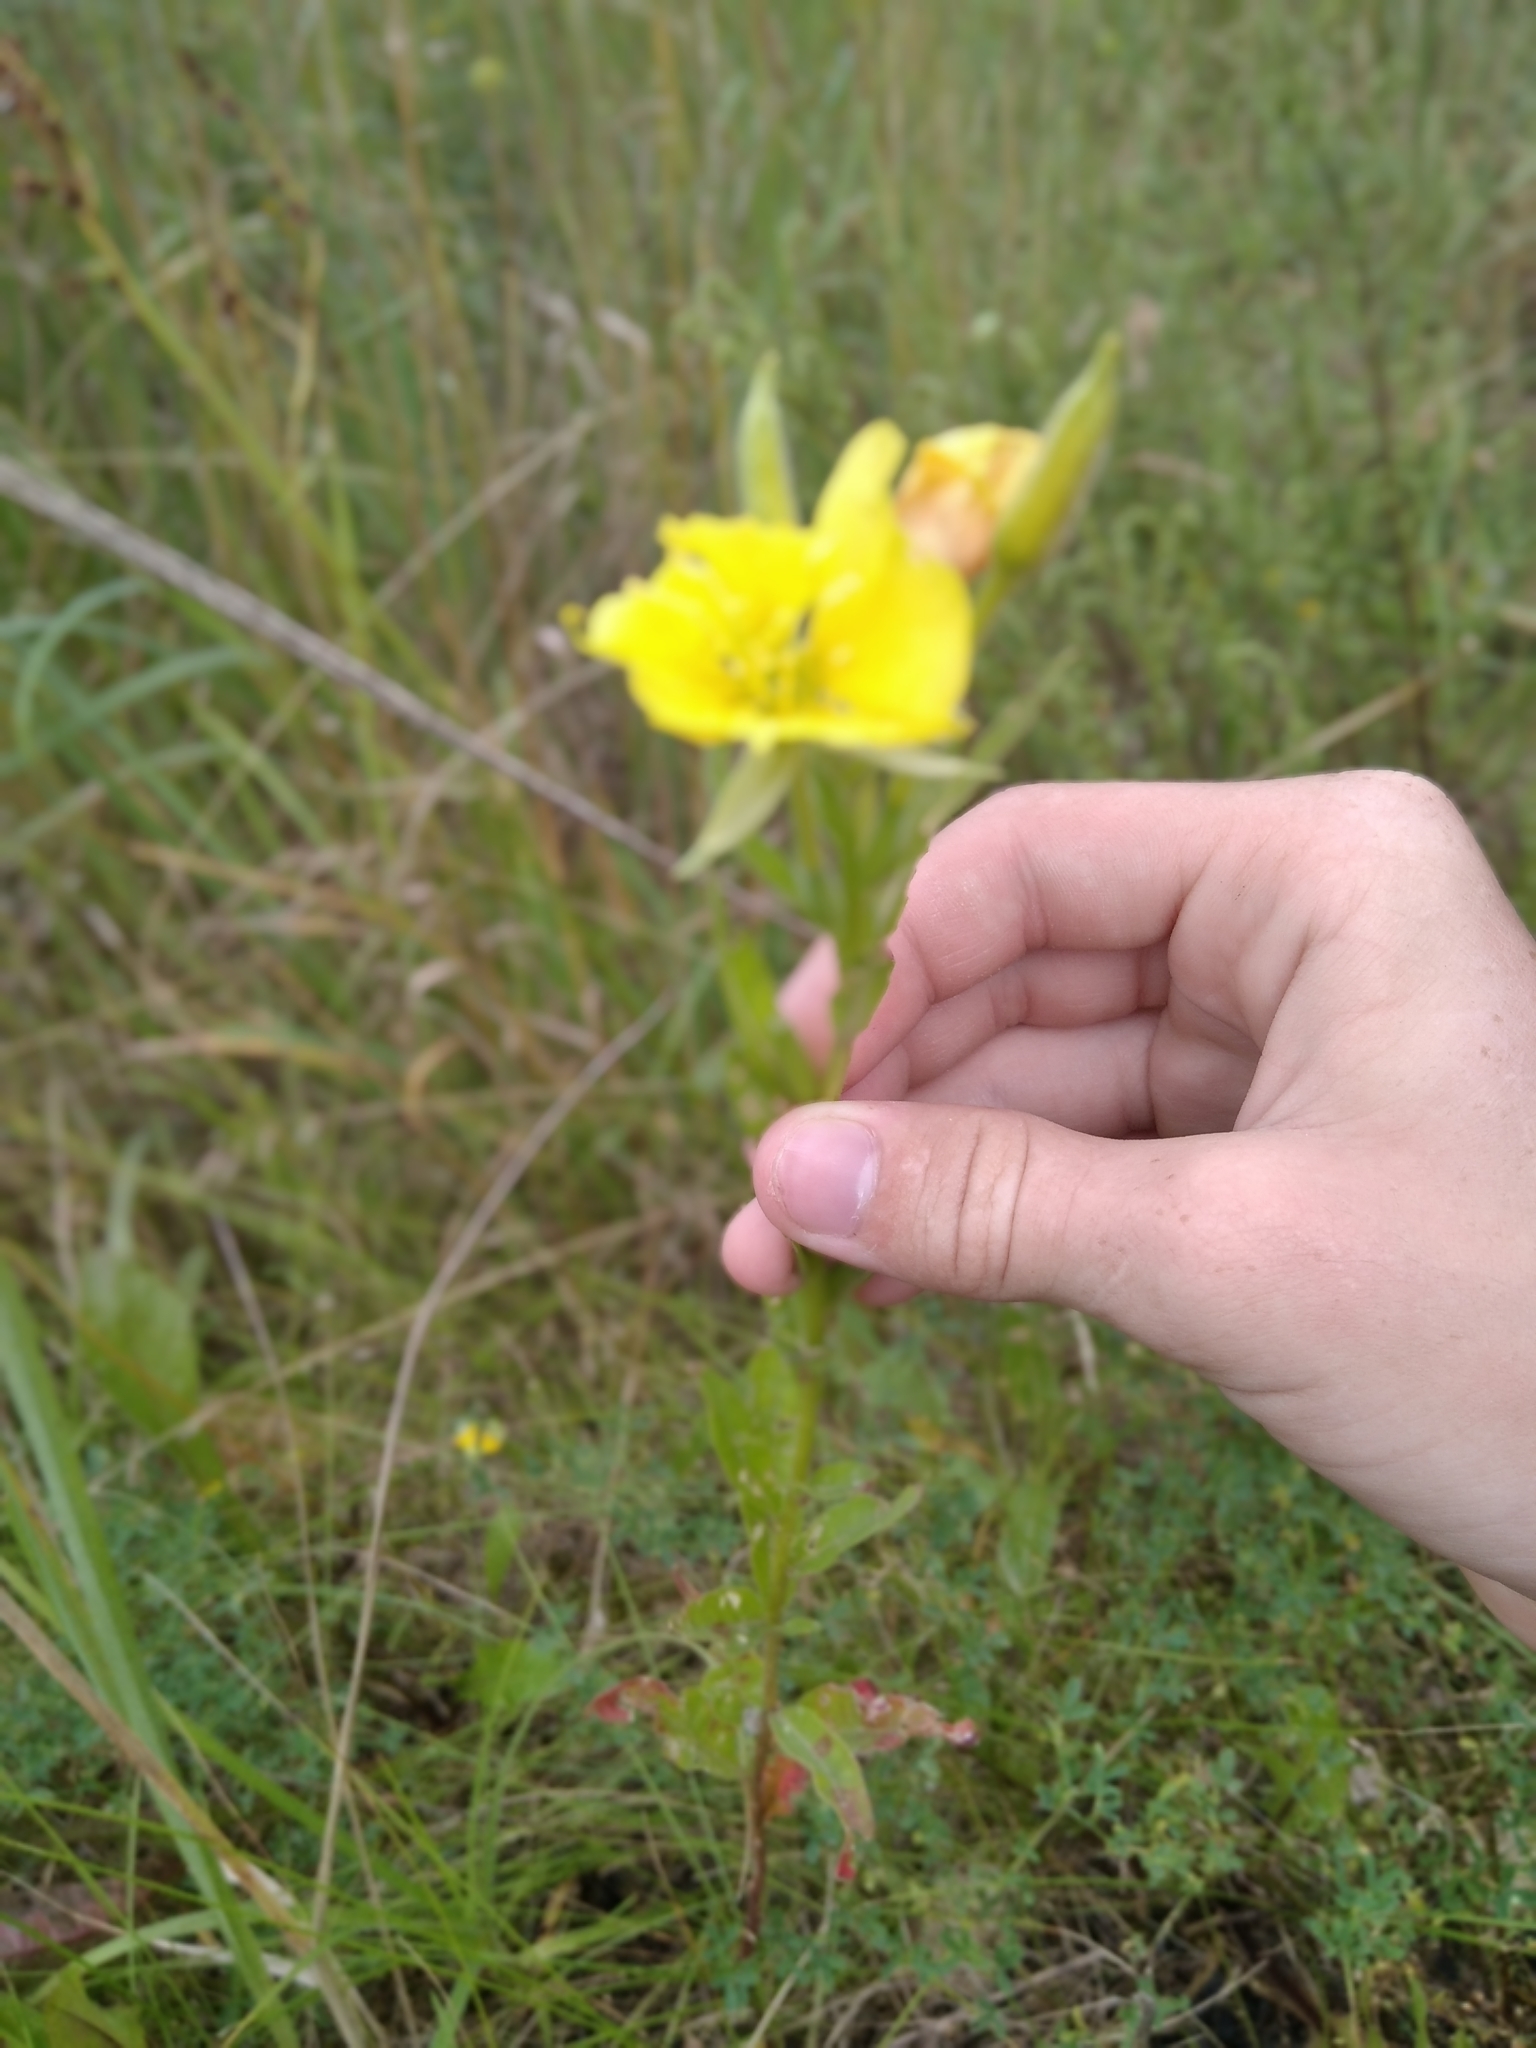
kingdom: Plantae
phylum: Tracheophyta
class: Magnoliopsida
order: Myrtales
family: Onagraceae
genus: Oenothera
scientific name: Oenothera biennis
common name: Common evening-primrose
